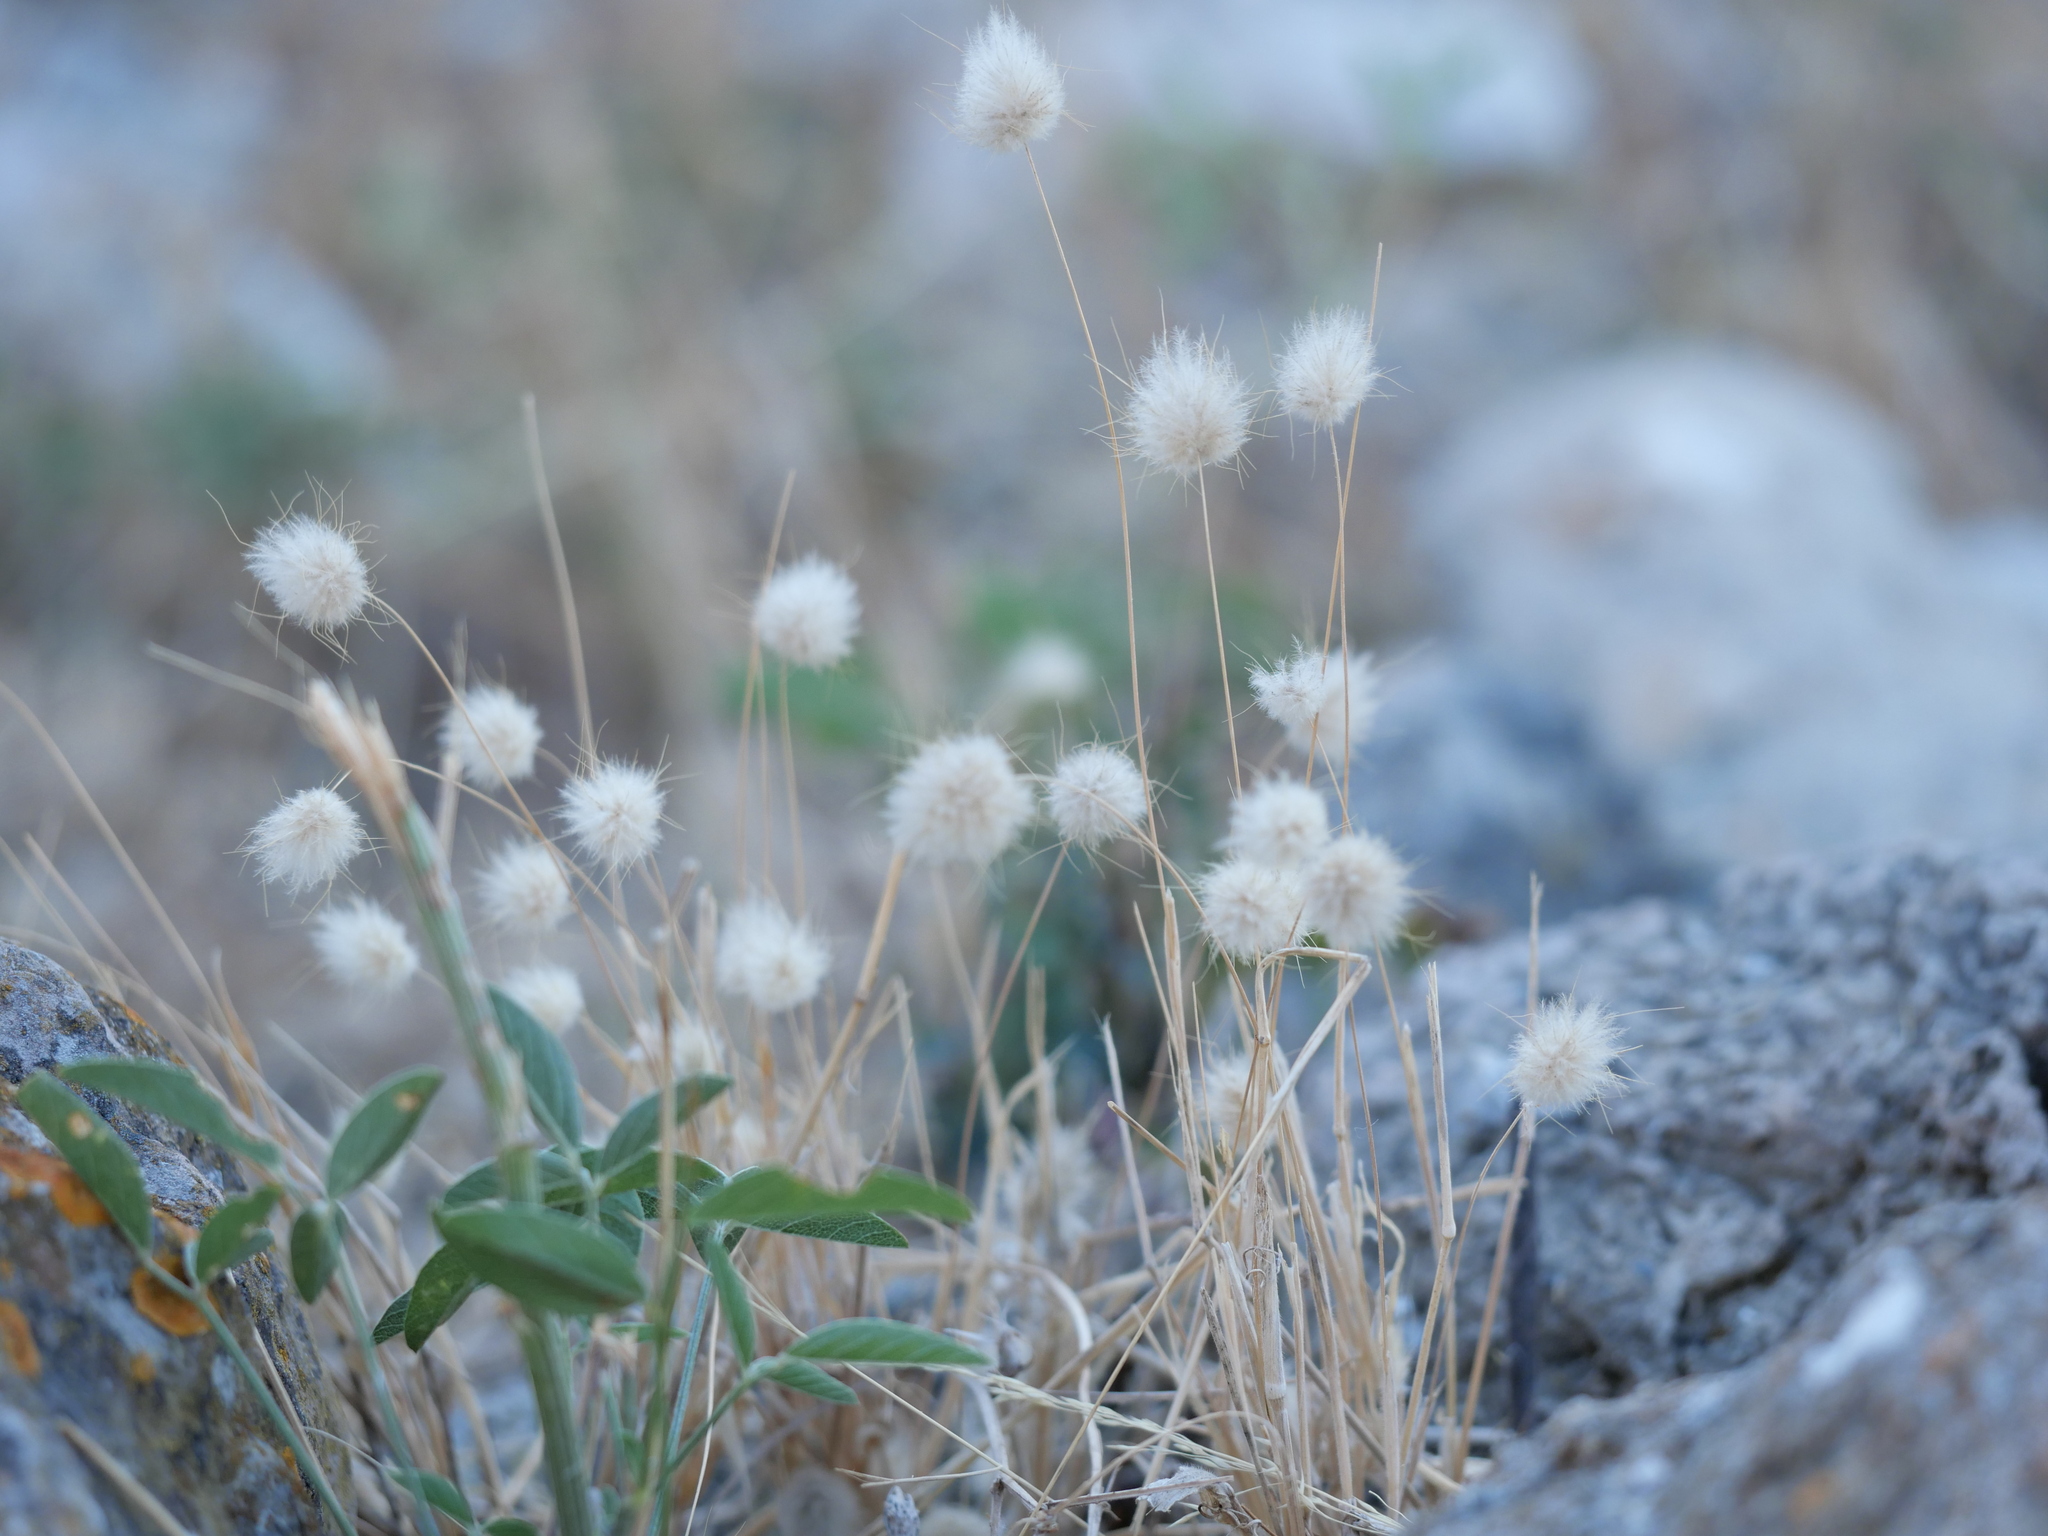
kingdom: Plantae
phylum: Tracheophyta
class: Liliopsida
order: Poales
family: Poaceae
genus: Lagurus
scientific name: Lagurus ovatus
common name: Hare's-tail
